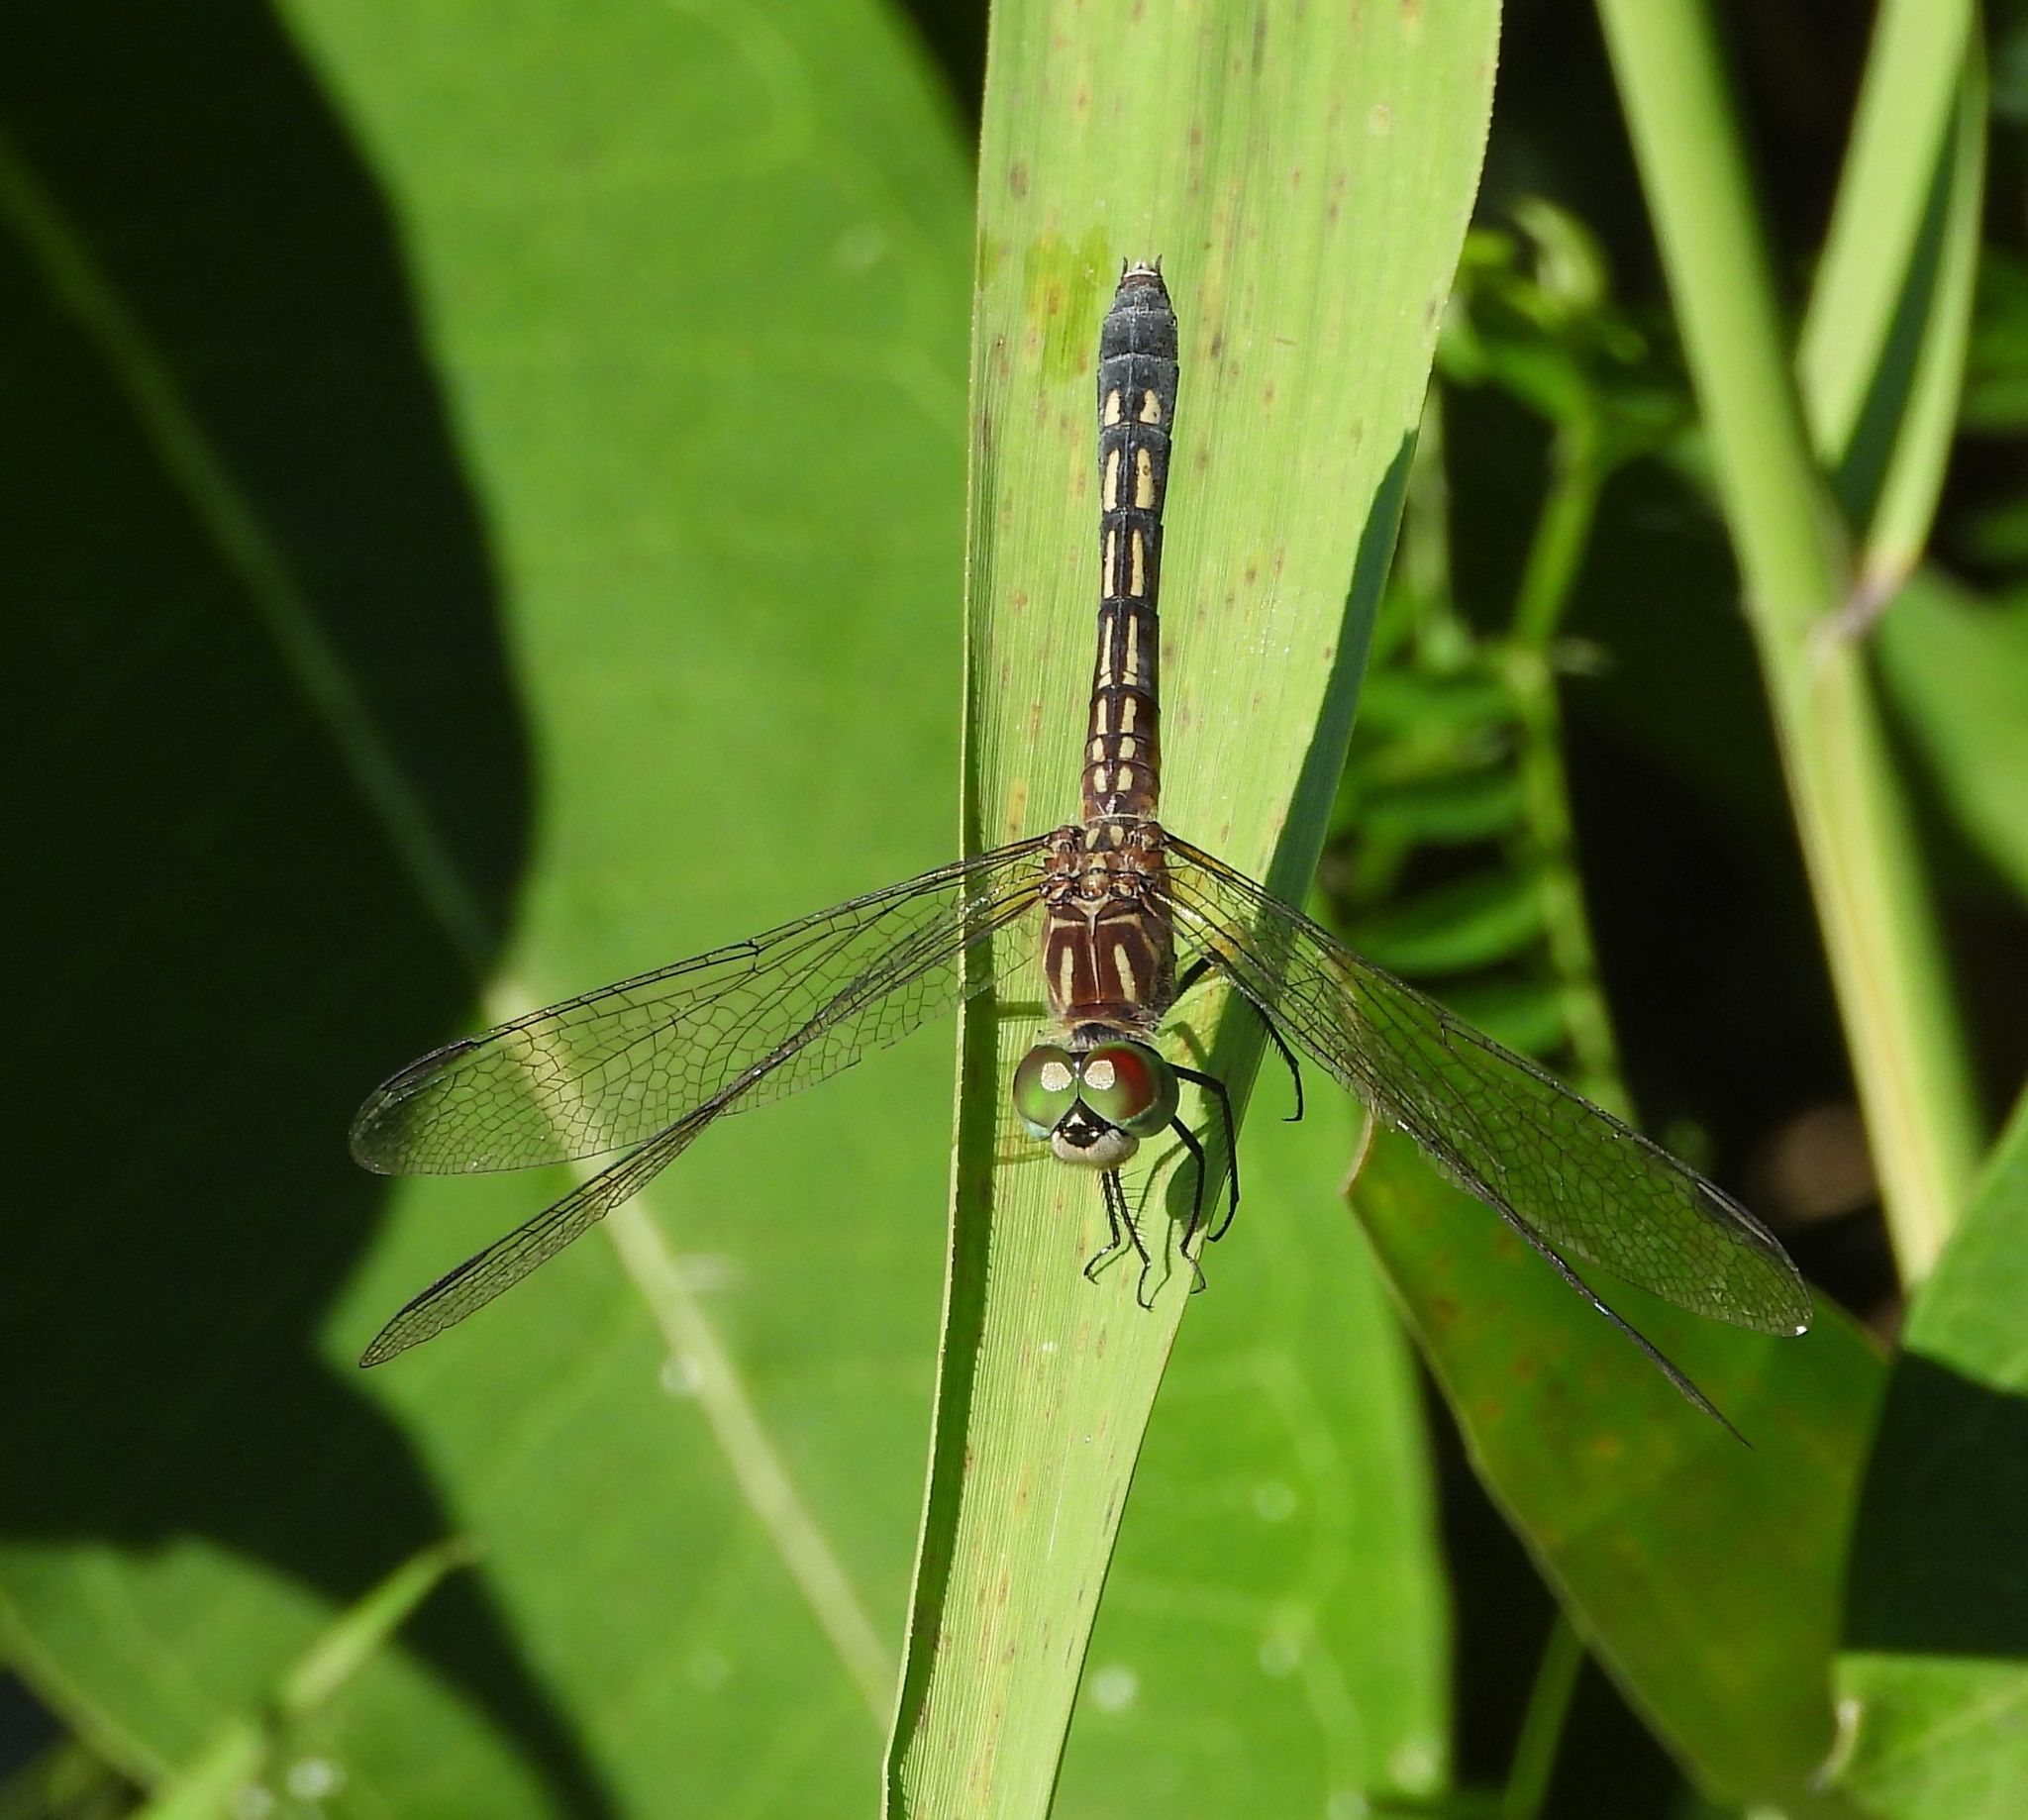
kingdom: Animalia
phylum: Arthropoda
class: Insecta
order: Odonata
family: Libellulidae
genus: Pachydiplax
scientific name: Pachydiplax longipennis
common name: Blue dasher
